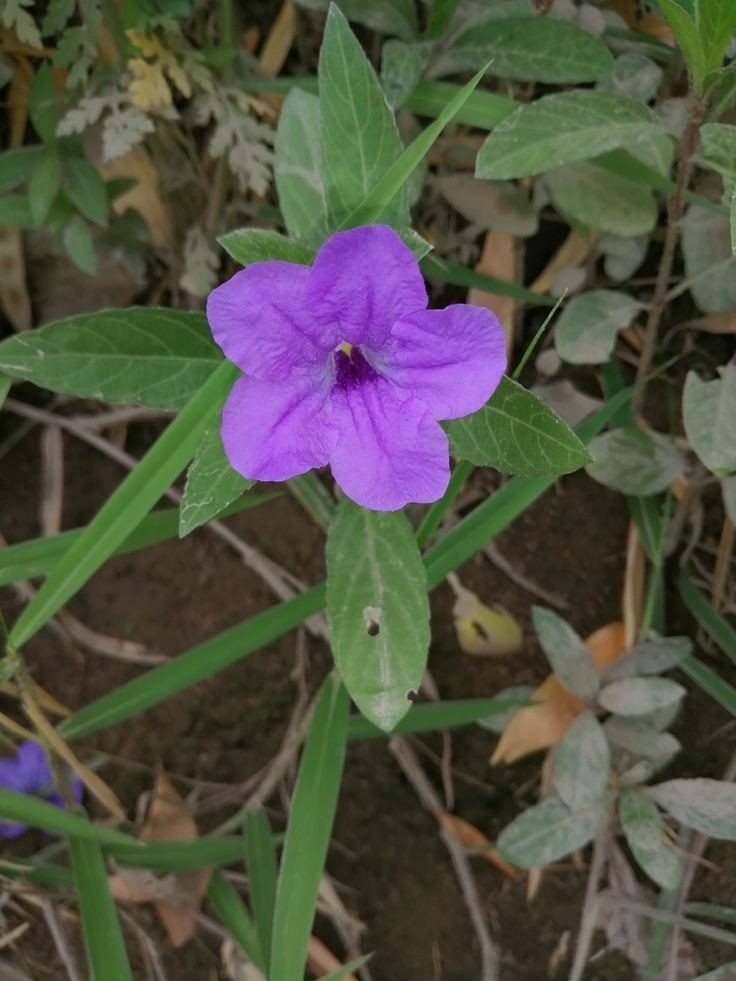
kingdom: Plantae
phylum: Tracheophyta
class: Magnoliopsida
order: Lamiales
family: Acanthaceae
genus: Ruellia
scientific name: Ruellia simplex
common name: Softseed wild petunia
